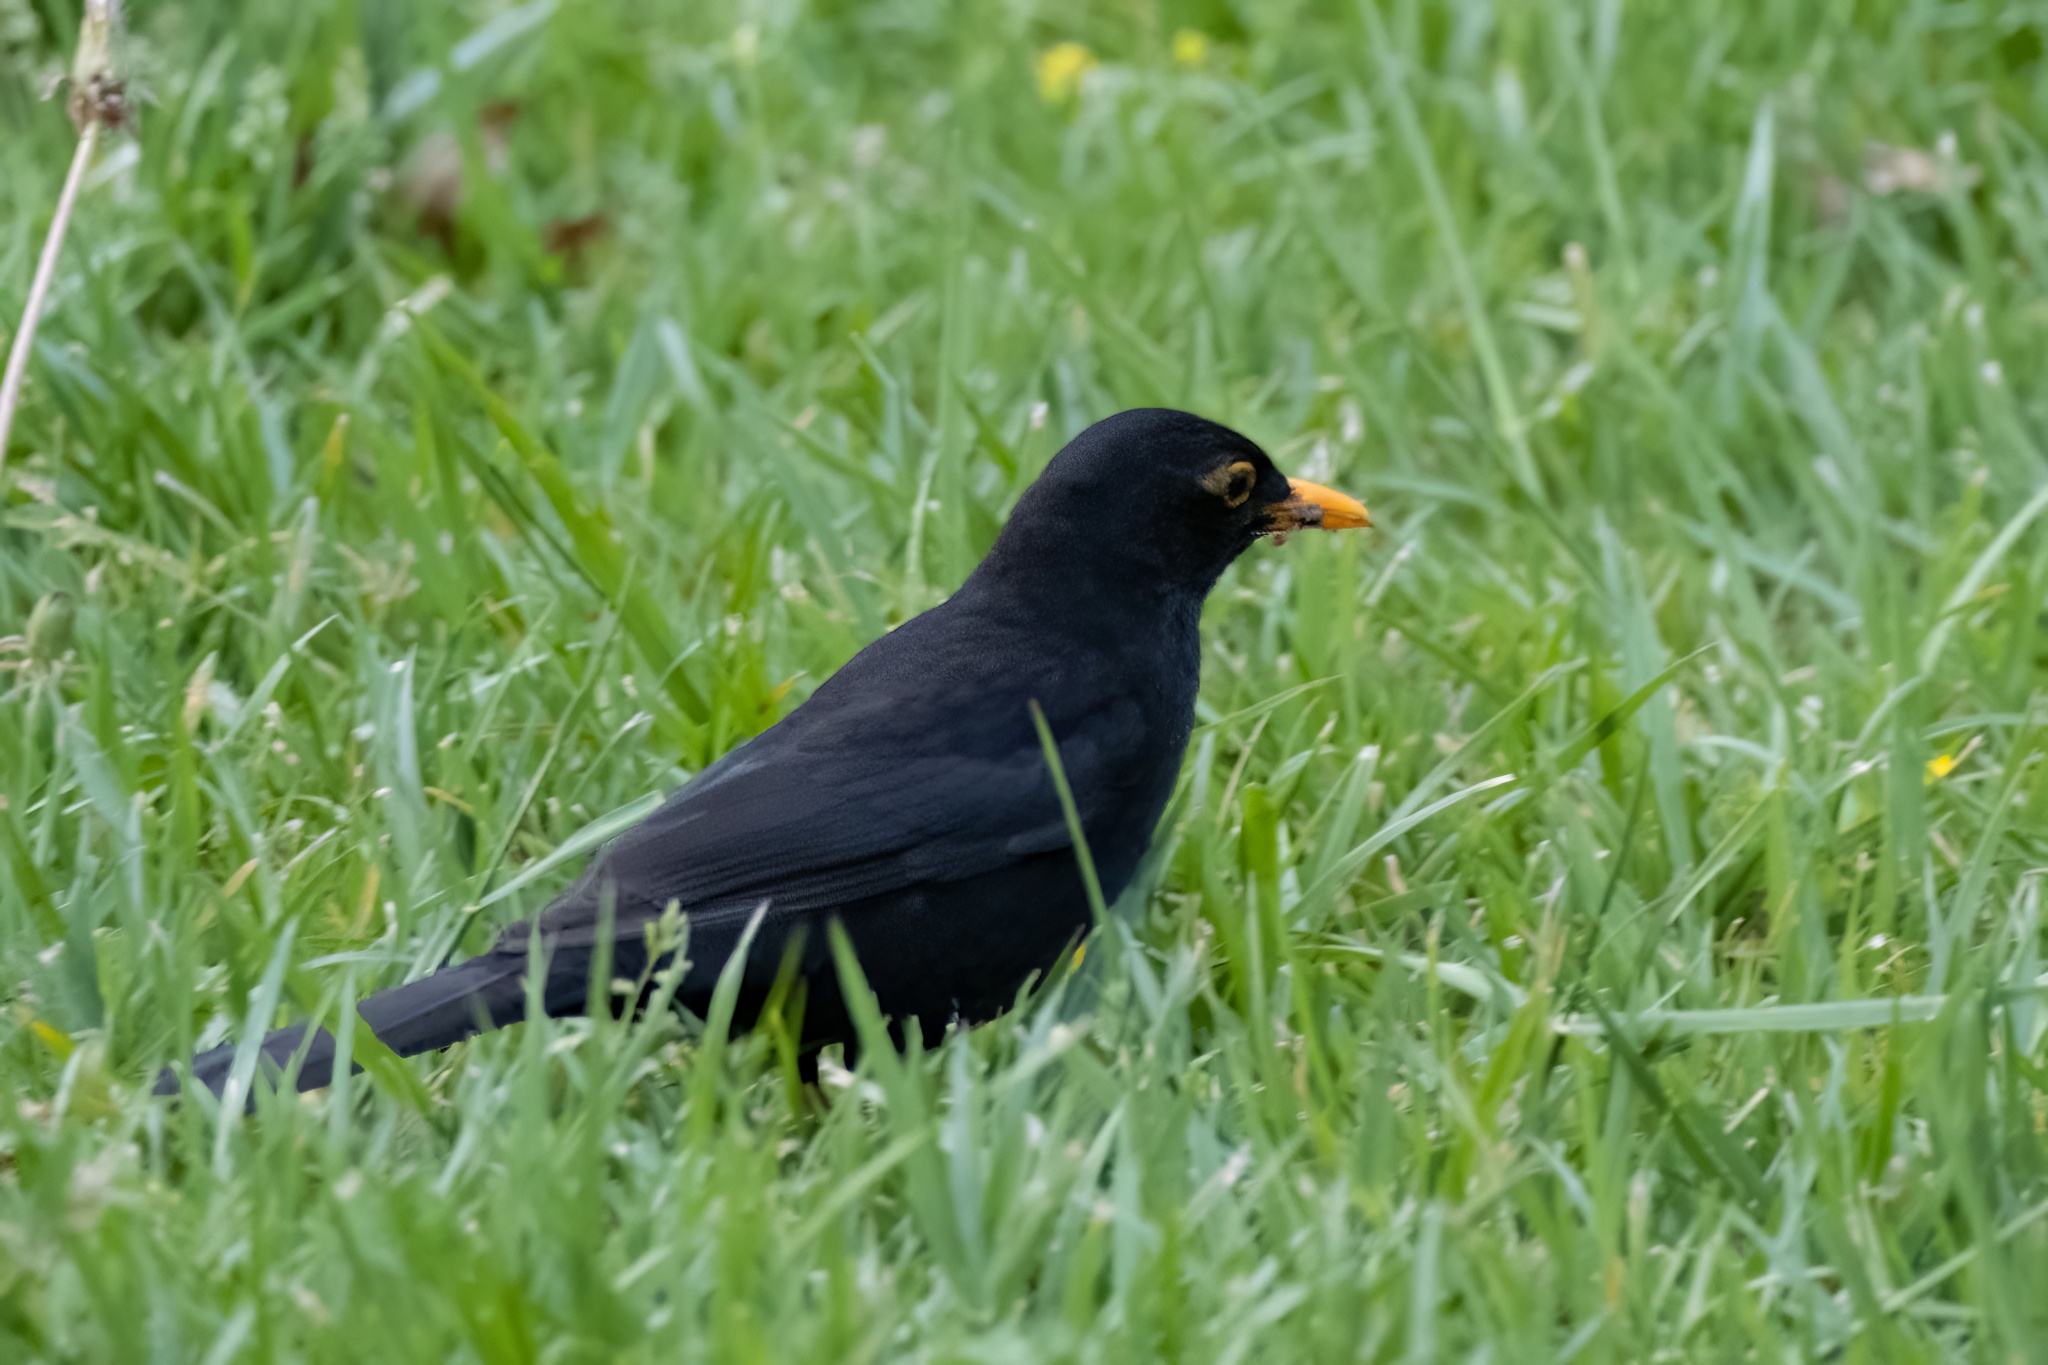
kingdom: Animalia
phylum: Chordata
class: Aves
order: Passeriformes
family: Turdidae
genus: Turdus
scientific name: Turdus merula
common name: Common blackbird
